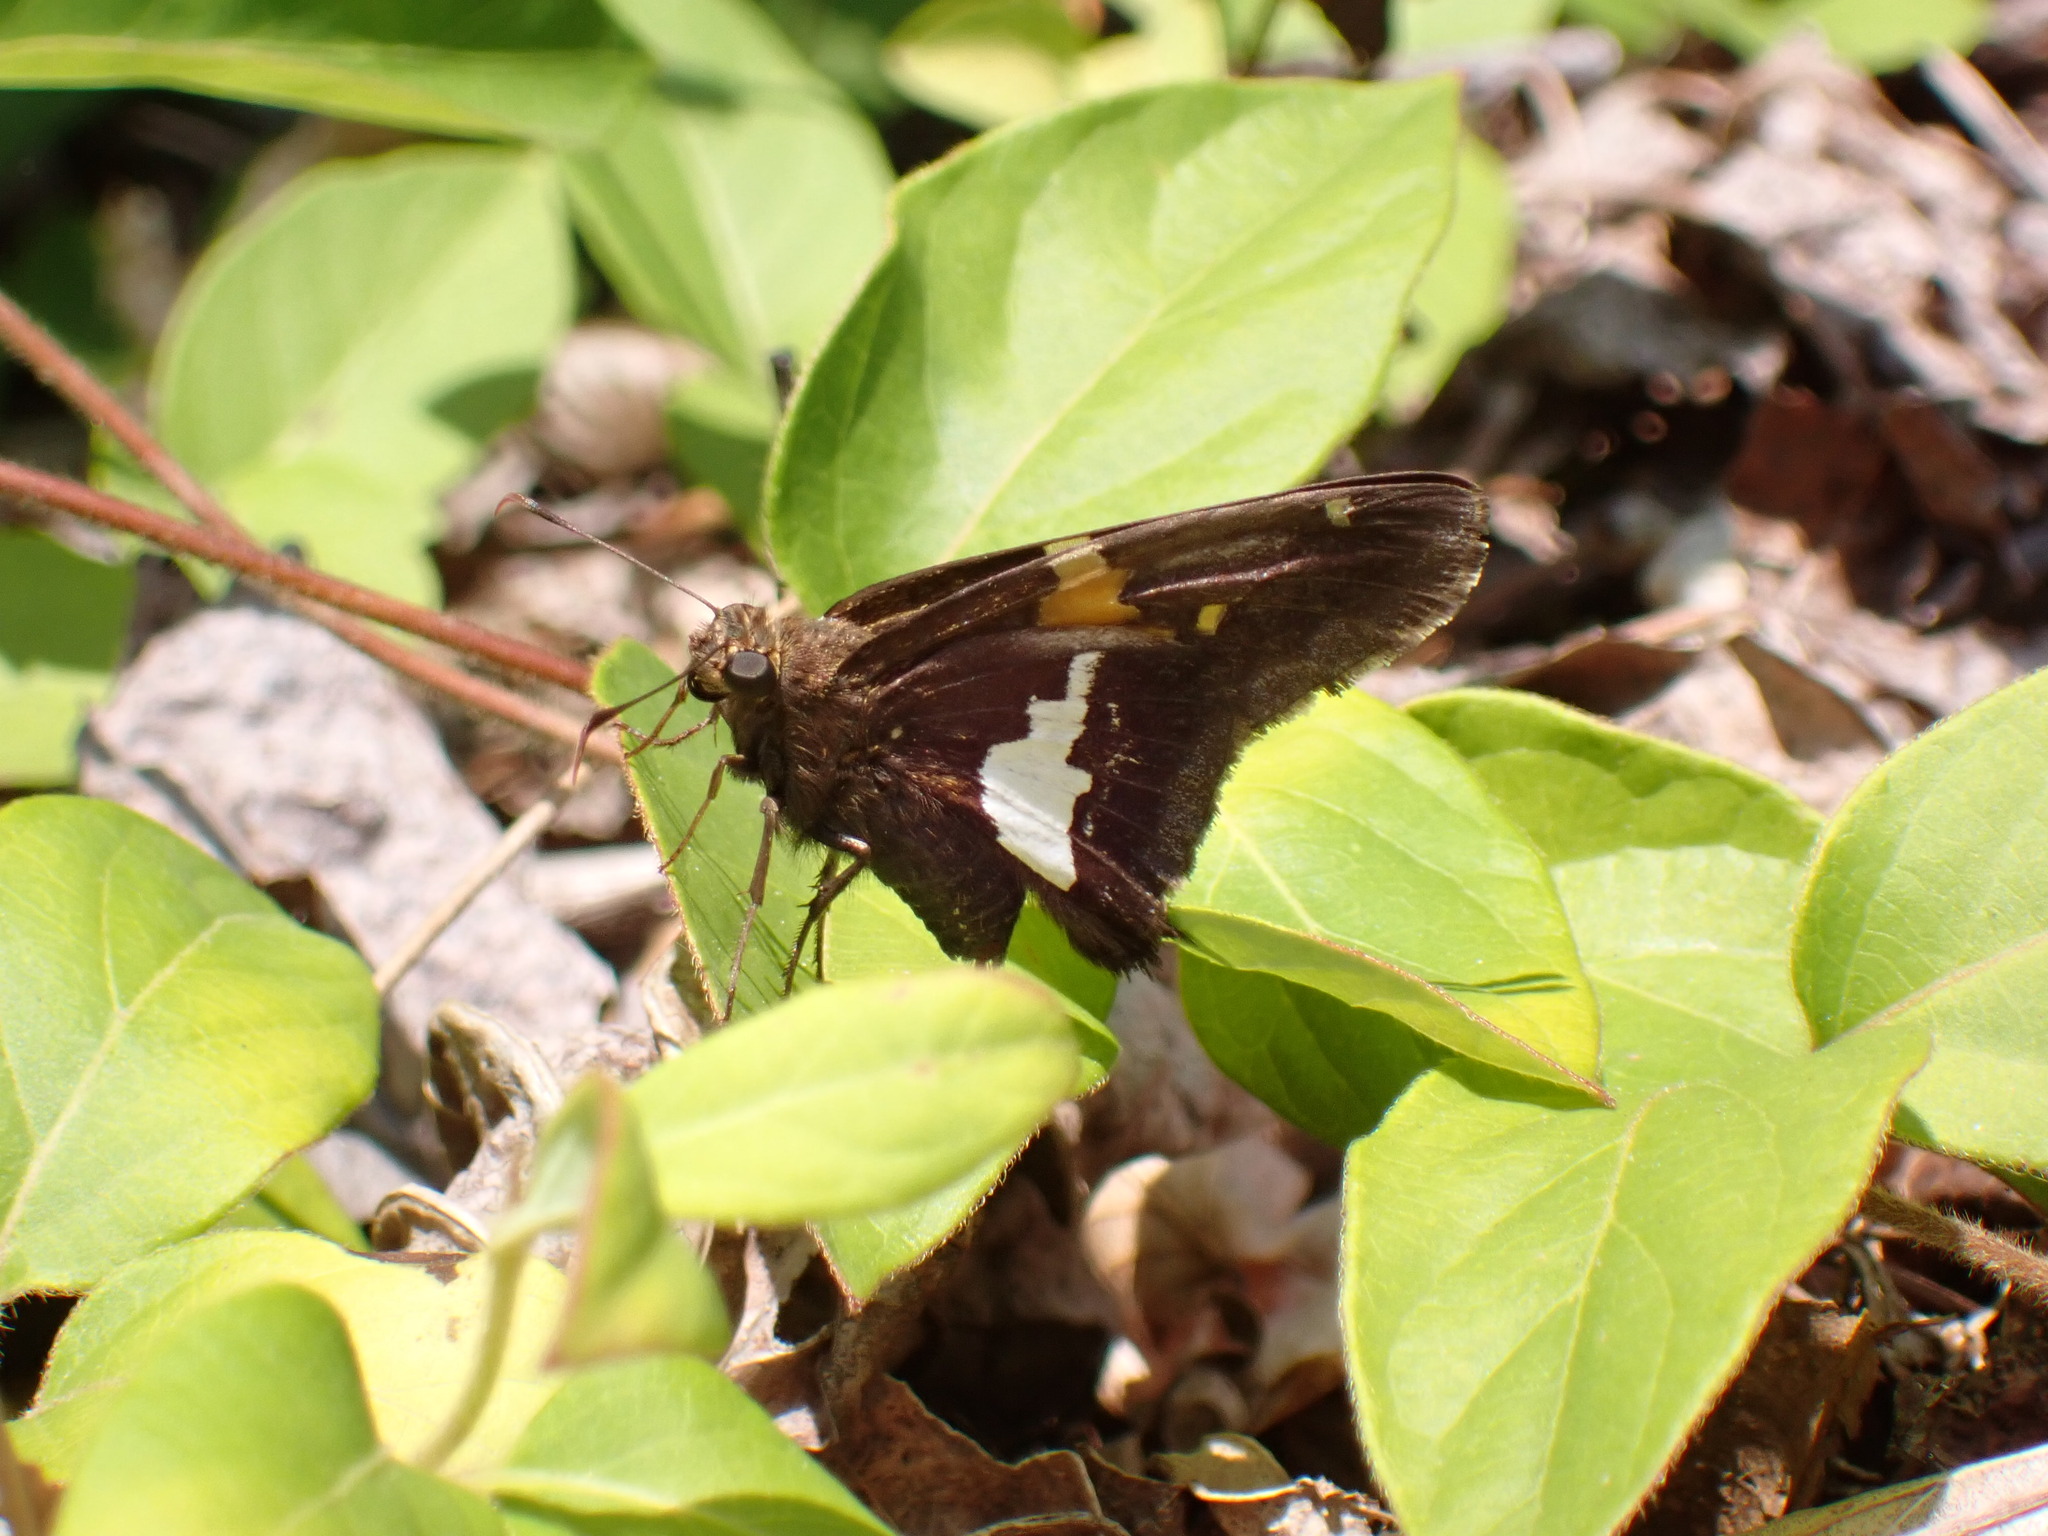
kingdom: Animalia
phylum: Arthropoda
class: Insecta
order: Lepidoptera
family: Hesperiidae
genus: Epargyreus
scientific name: Epargyreus clarus
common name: Silver-spotted skipper
